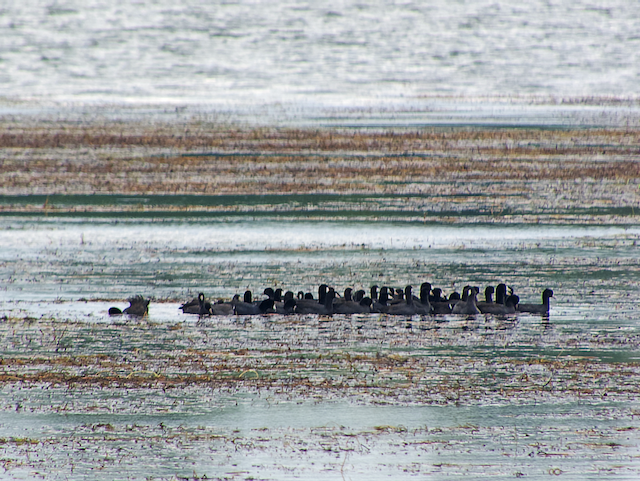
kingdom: Animalia
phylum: Chordata
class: Aves
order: Gruiformes
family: Rallidae
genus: Fulica
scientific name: Fulica americana
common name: American coot
